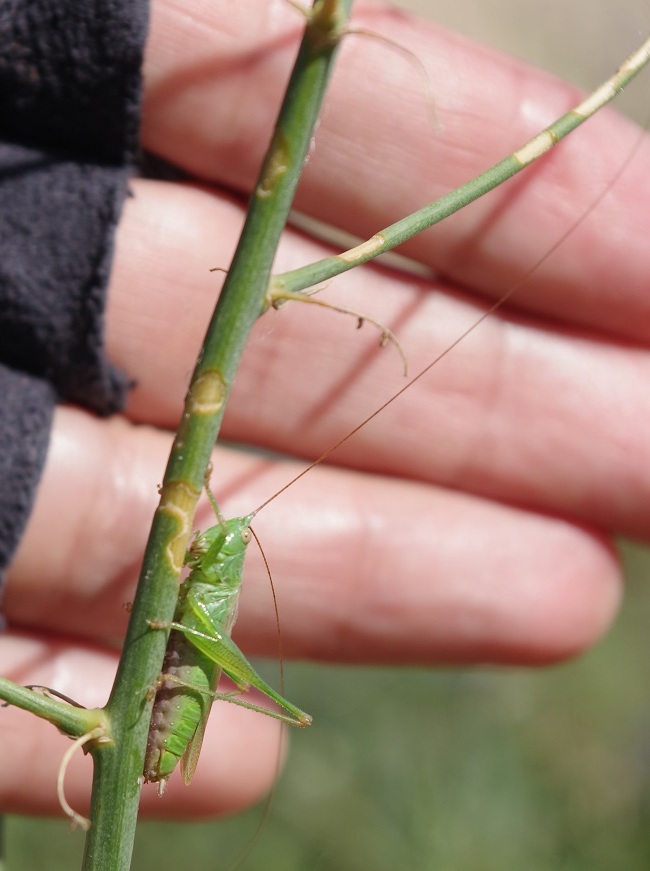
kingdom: Animalia
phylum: Arthropoda
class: Insecta
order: Orthoptera
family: Tettigoniidae
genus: Conocephalus
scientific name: Conocephalus fuscus
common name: Long-winged conehead
